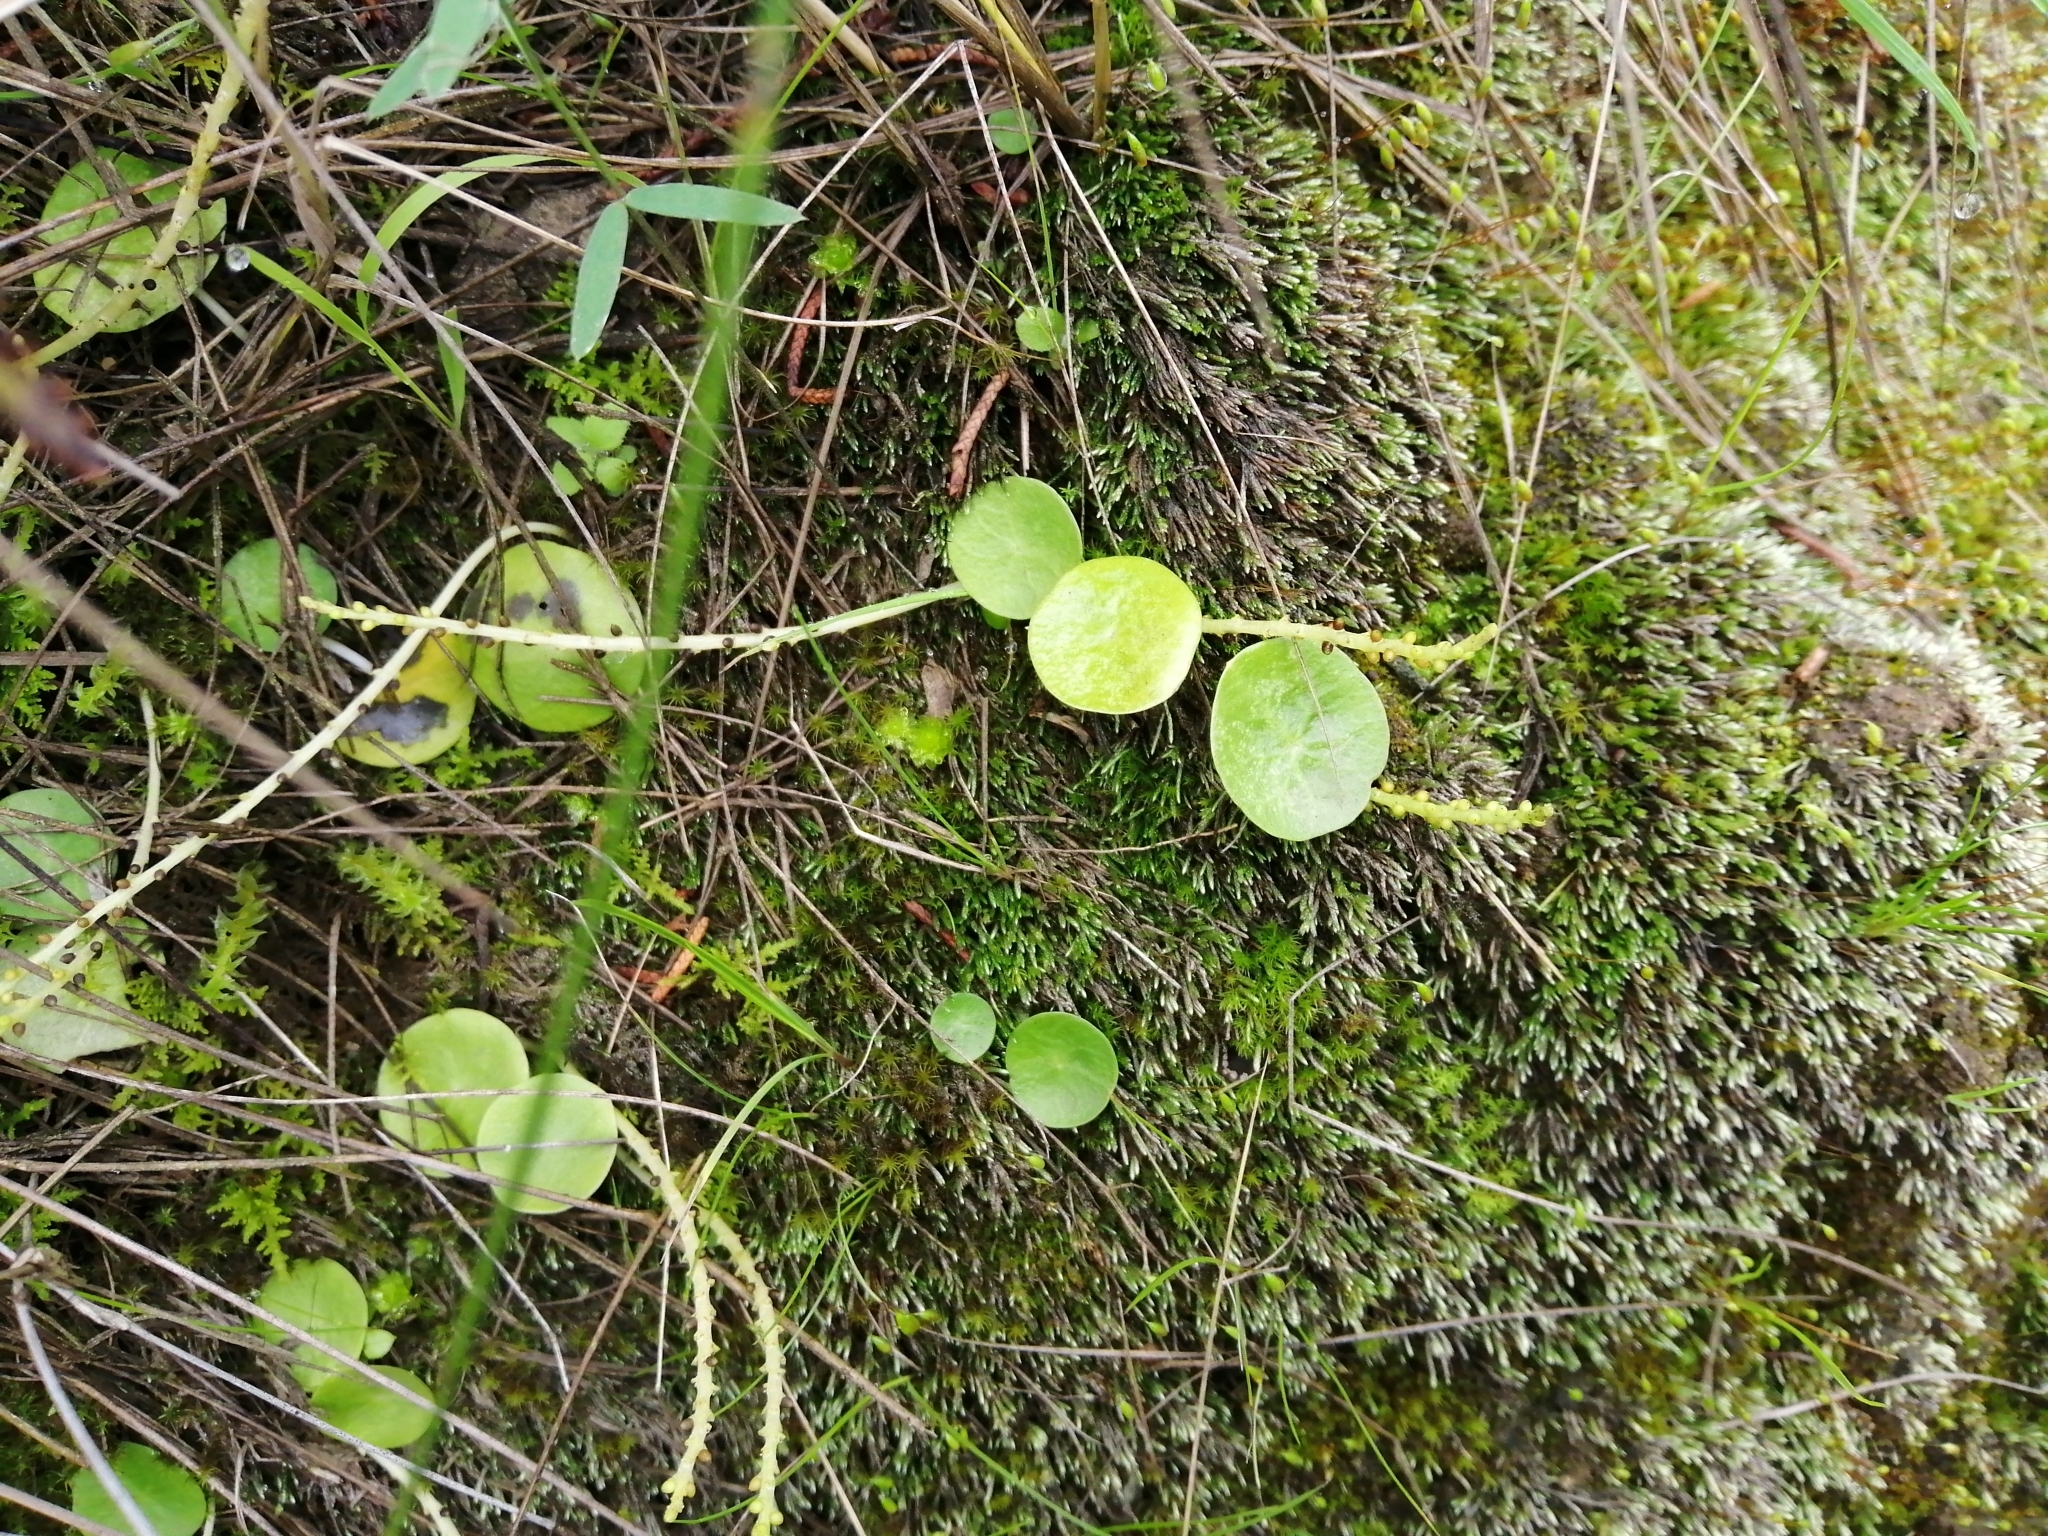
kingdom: Plantae
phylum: Tracheophyta
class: Magnoliopsida
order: Piperales
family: Piperaceae
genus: Peperomia
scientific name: Peperomia bracteata
